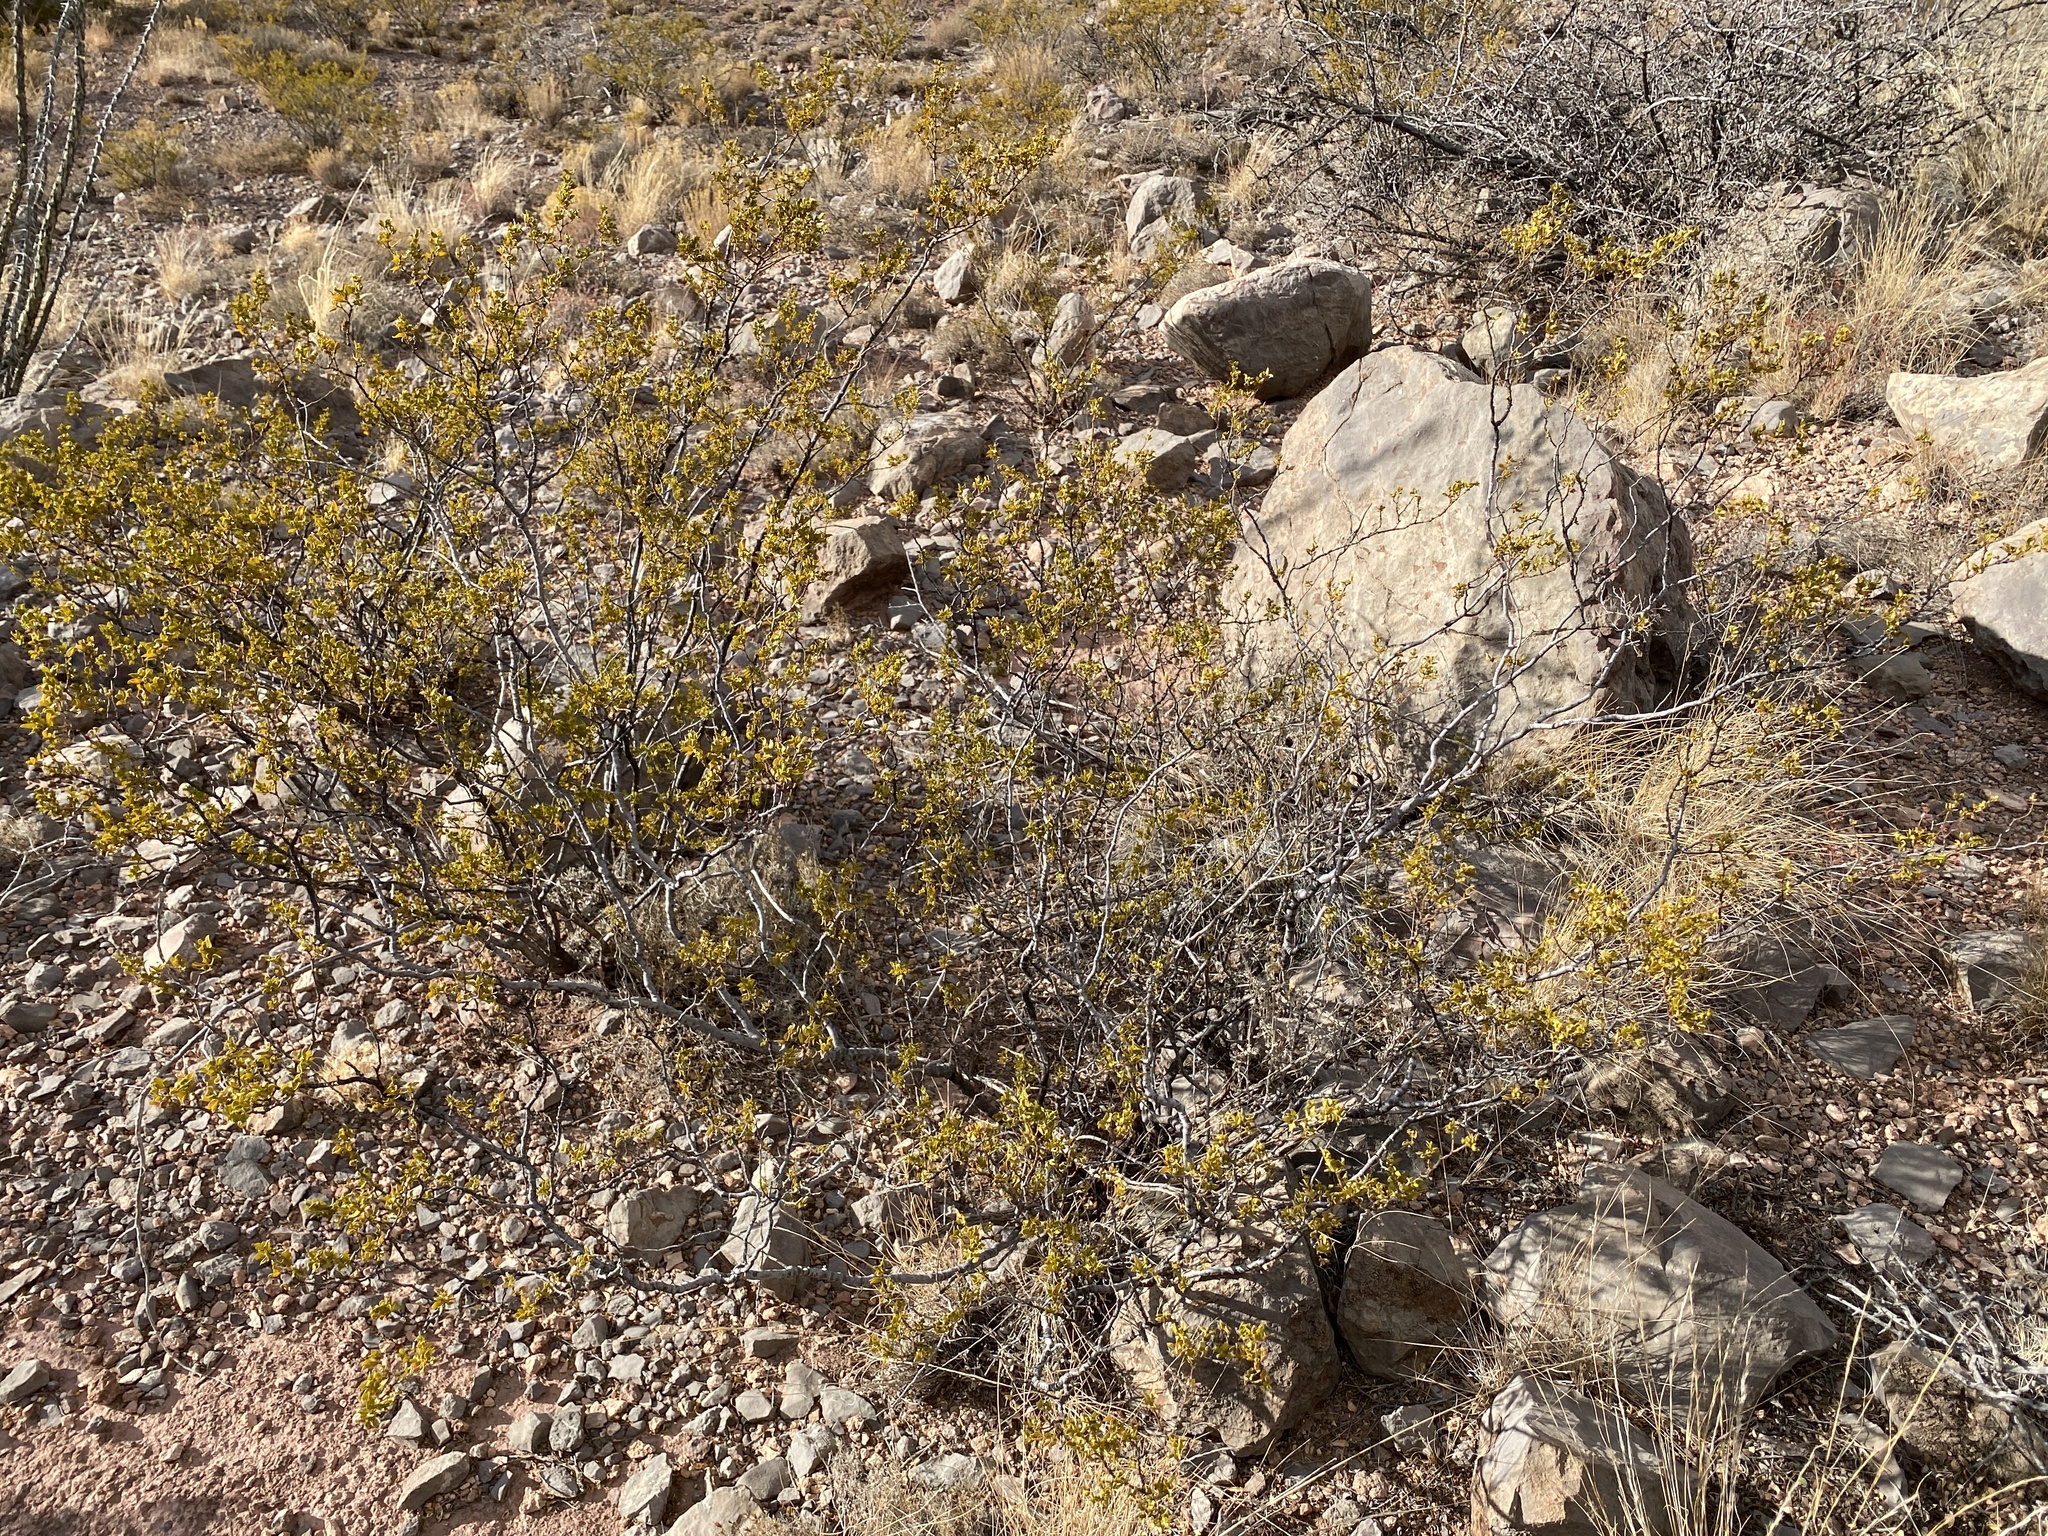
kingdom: Plantae
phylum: Tracheophyta
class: Magnoliopsida
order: Zygophyllales
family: Zygophyllaceae
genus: Larrea
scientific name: Larrea tridentata
